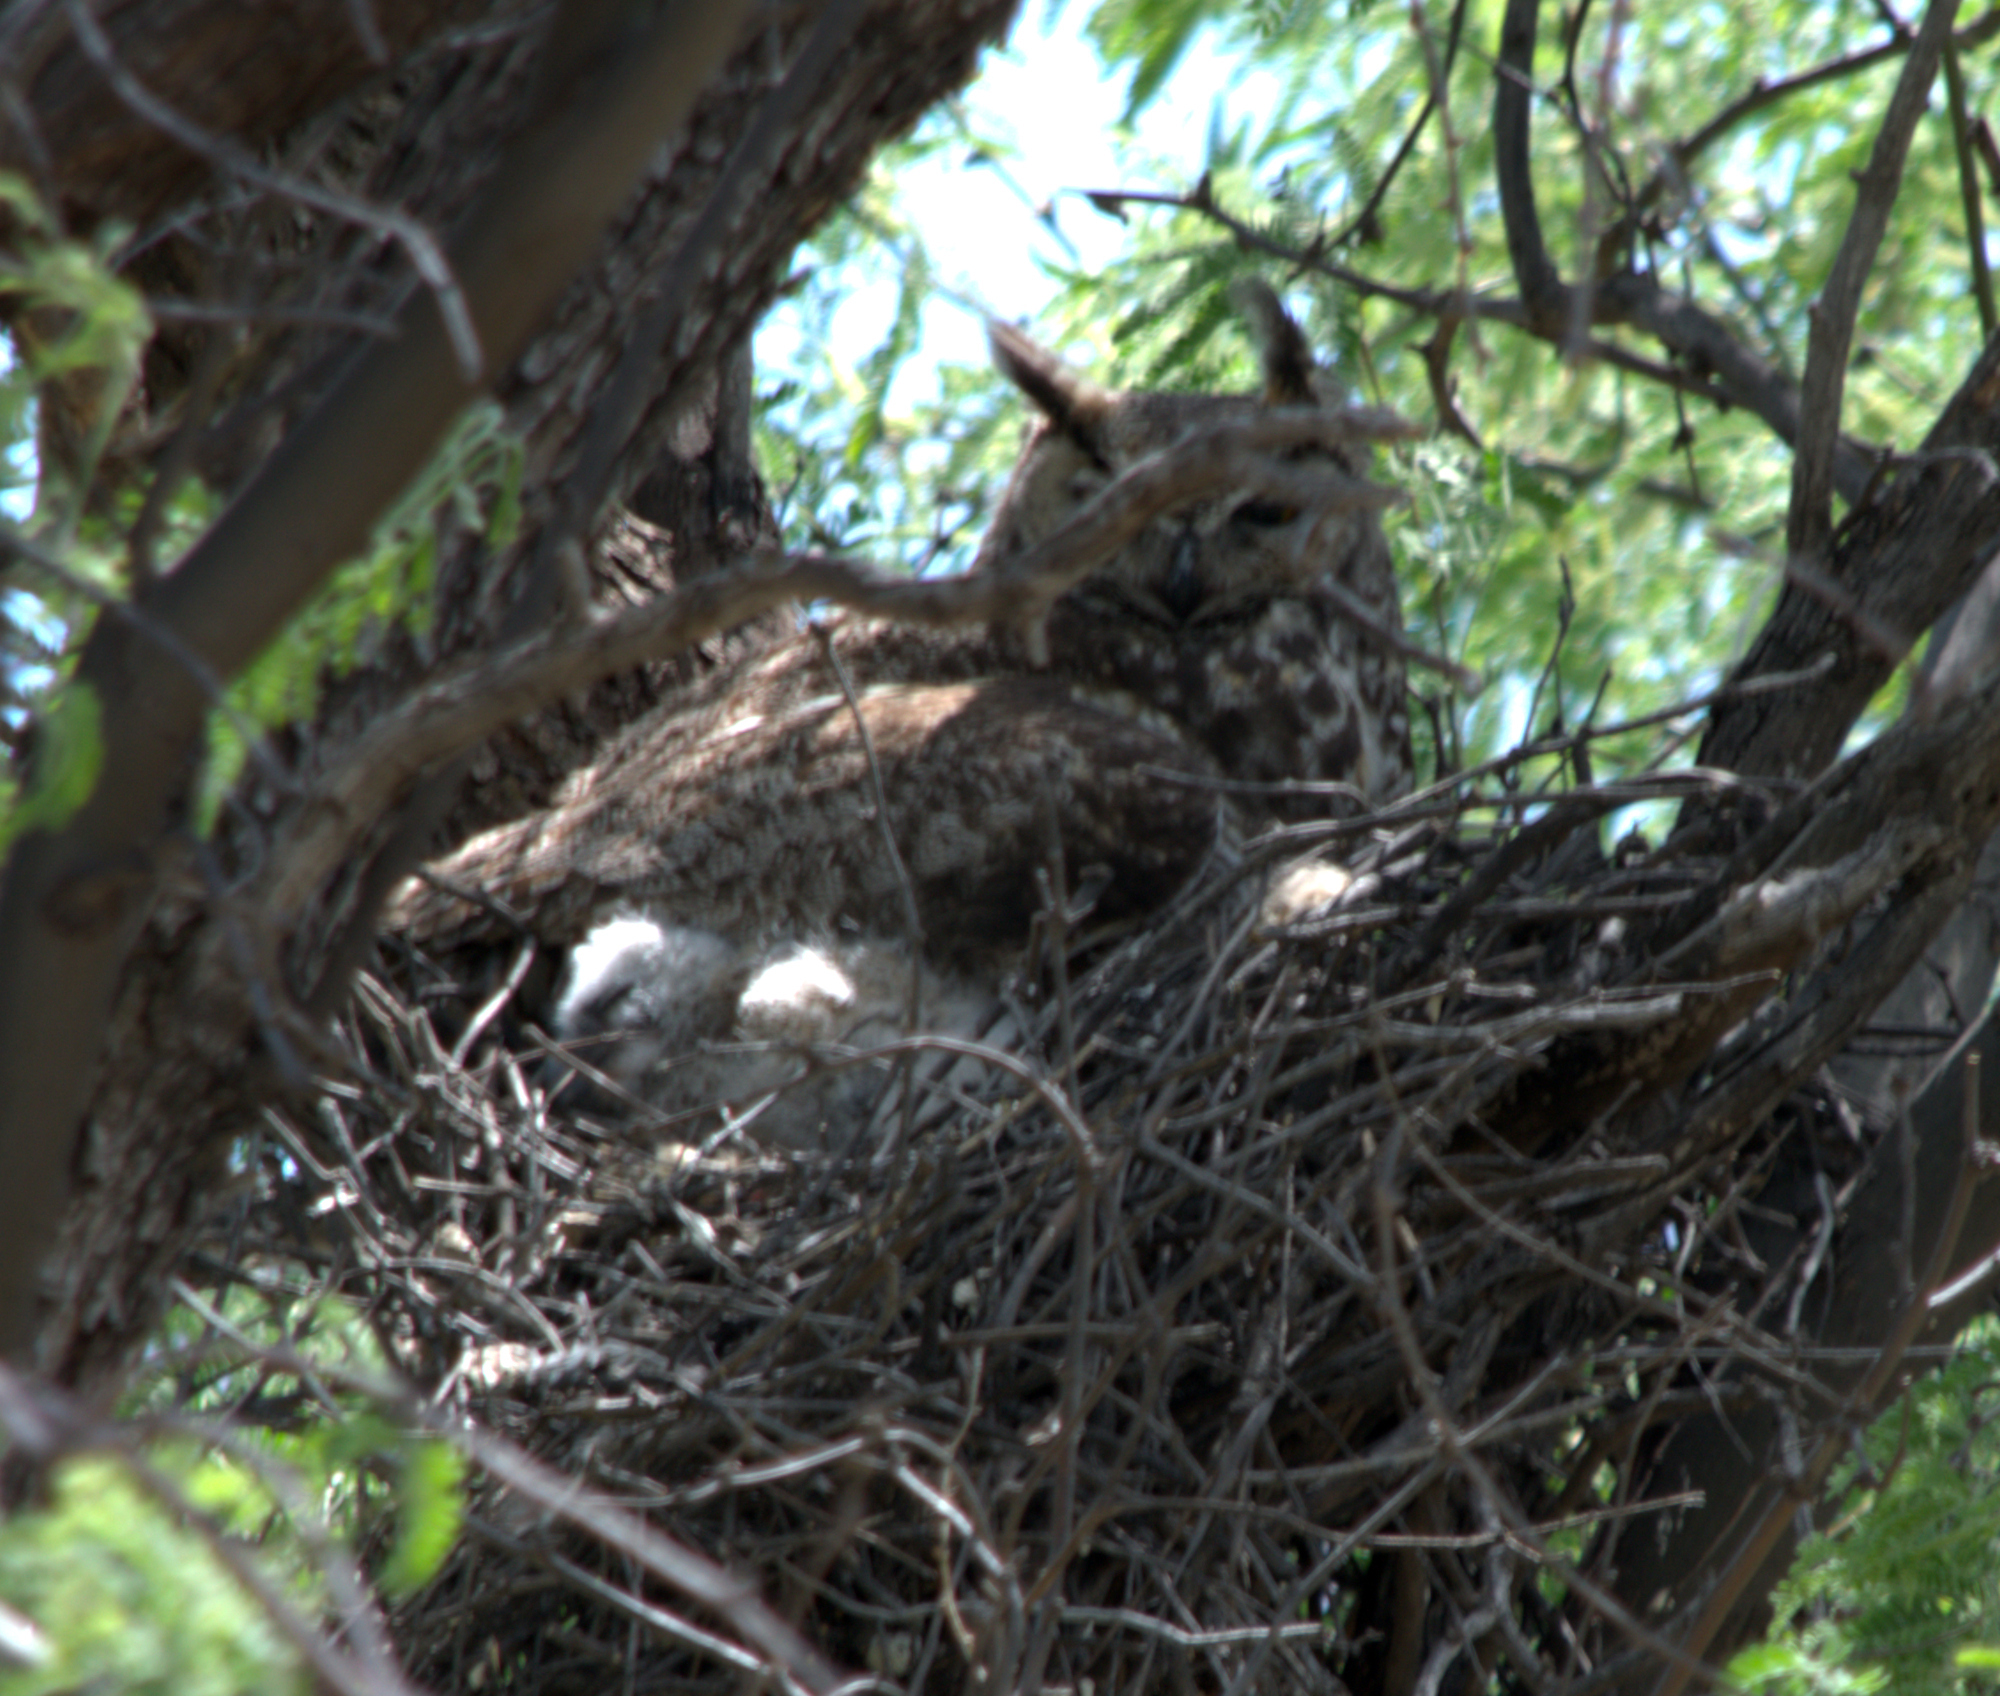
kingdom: Animalia
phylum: Chordata
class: Aves
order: Strigiformes
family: Strigidae
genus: Bubo
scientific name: Bubo virginianus
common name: Great horned owl
